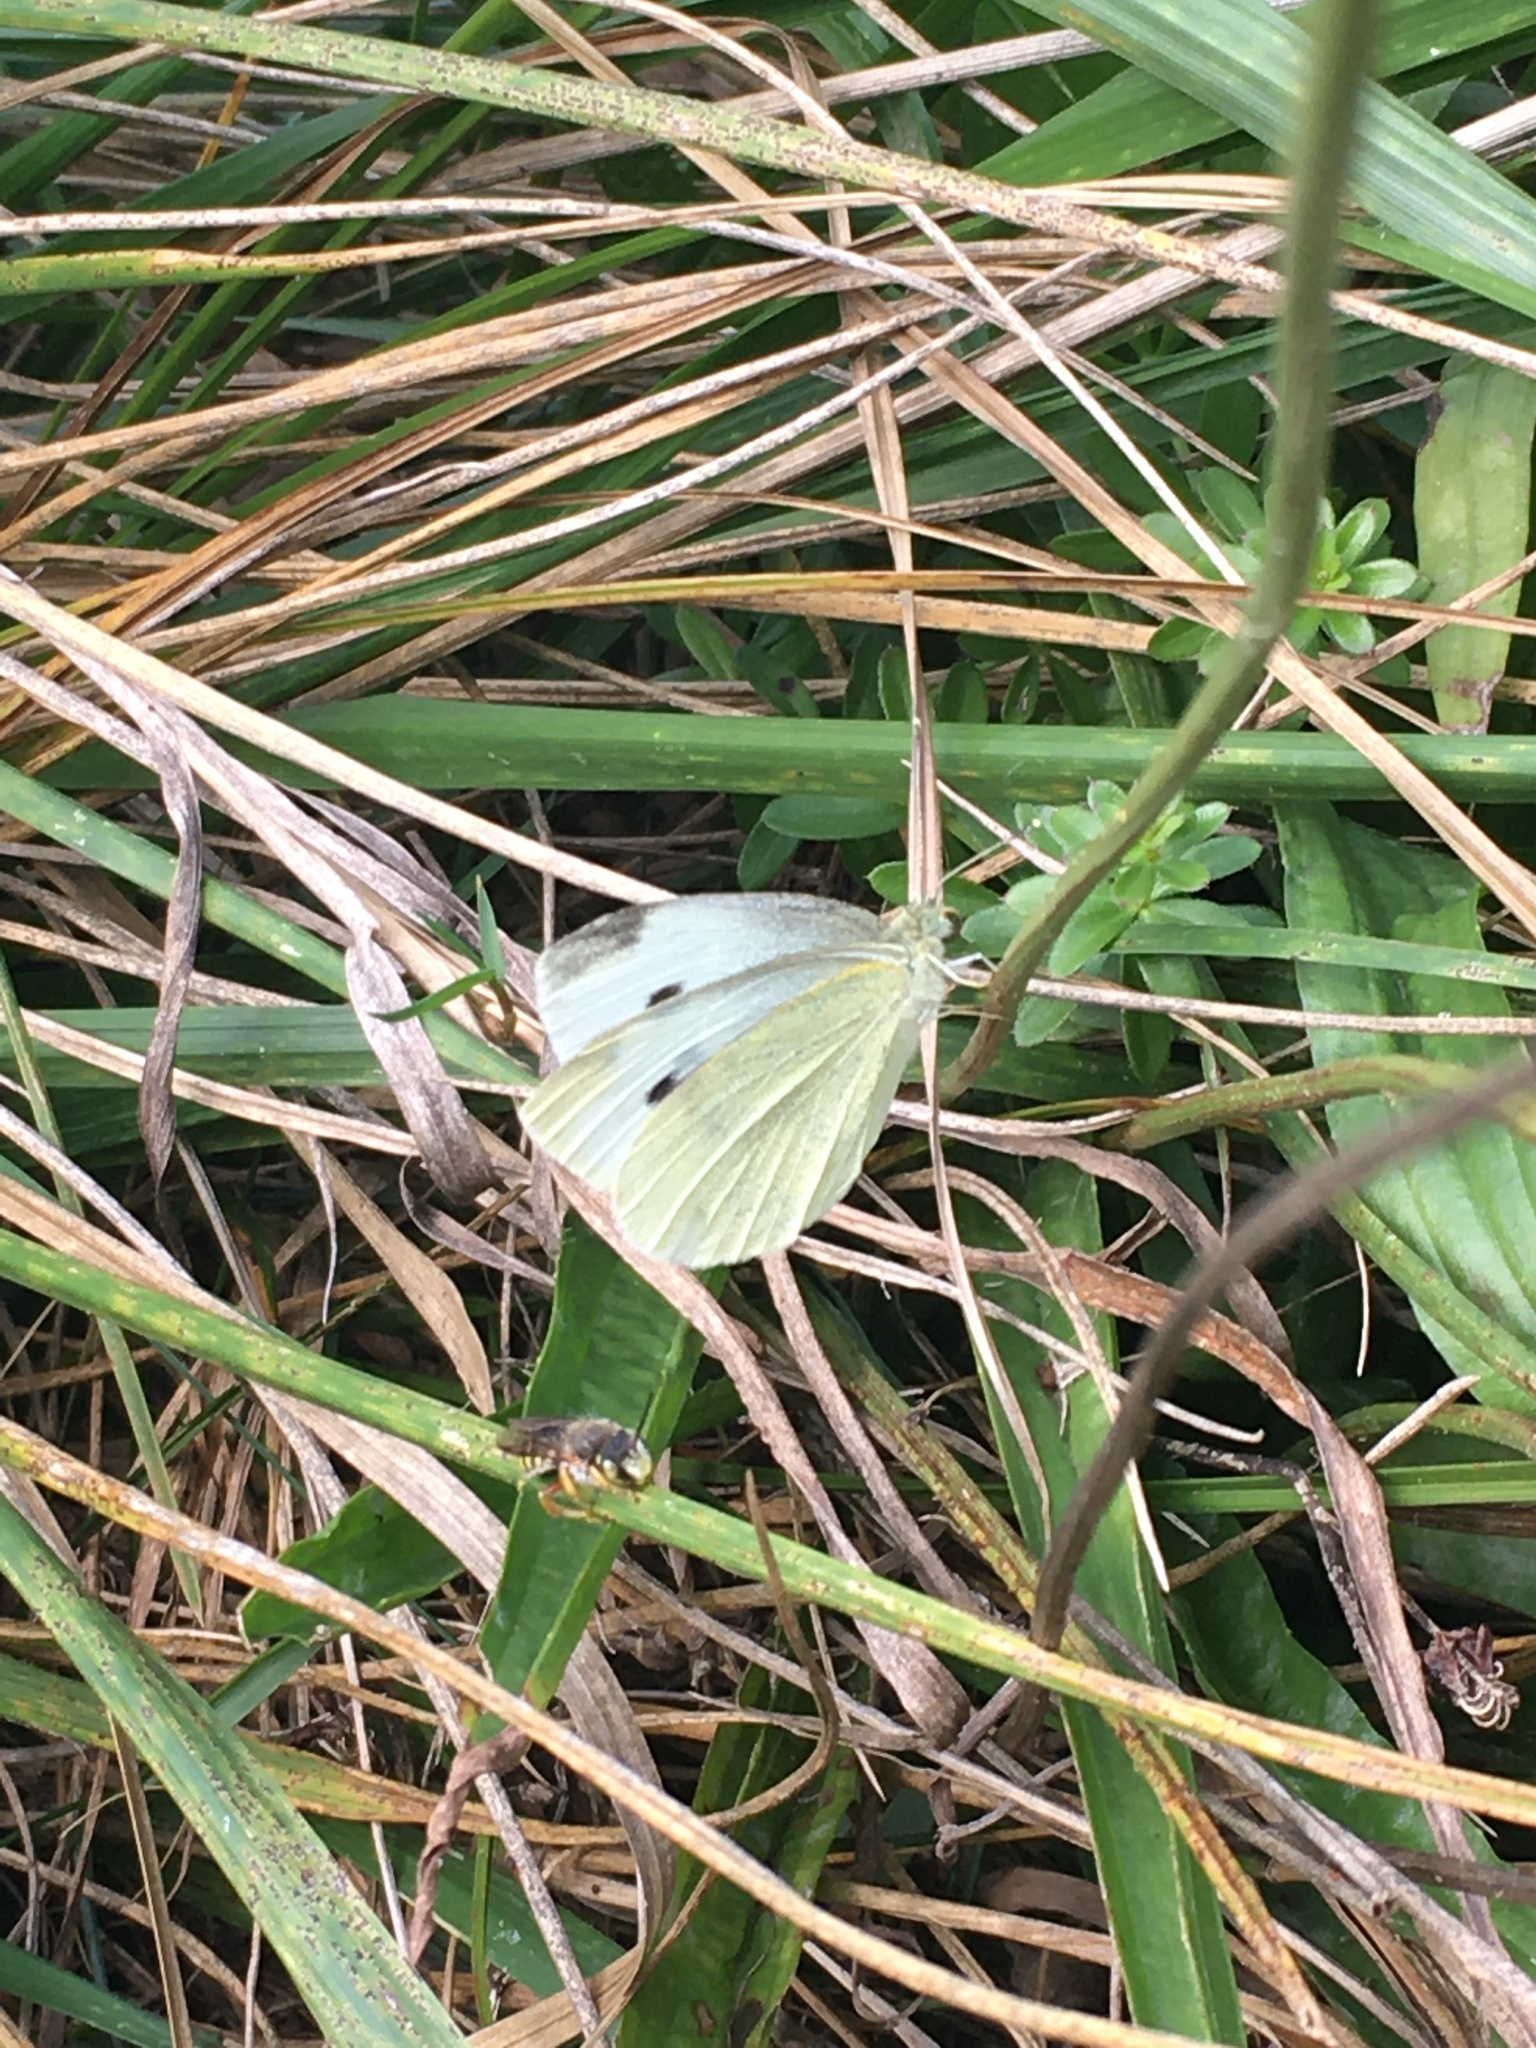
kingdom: Animalia
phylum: Arthropoda
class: Insecta
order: Lepidoptera
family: Pieridae
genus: Pieris
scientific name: Pieris rapae
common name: Small white
